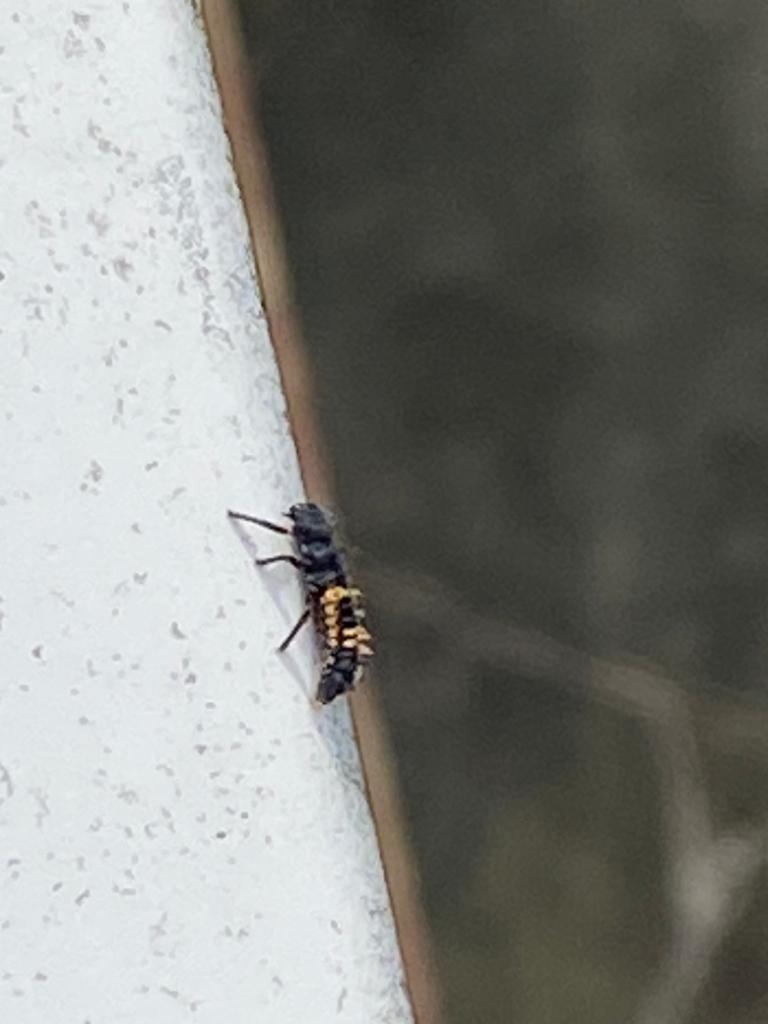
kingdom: Animalia
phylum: Arthropoda
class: Insecta
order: Coleoptera
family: Coccinellidae
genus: Harmonia
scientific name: Harmonia axyridis
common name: Harlequin ladybird
